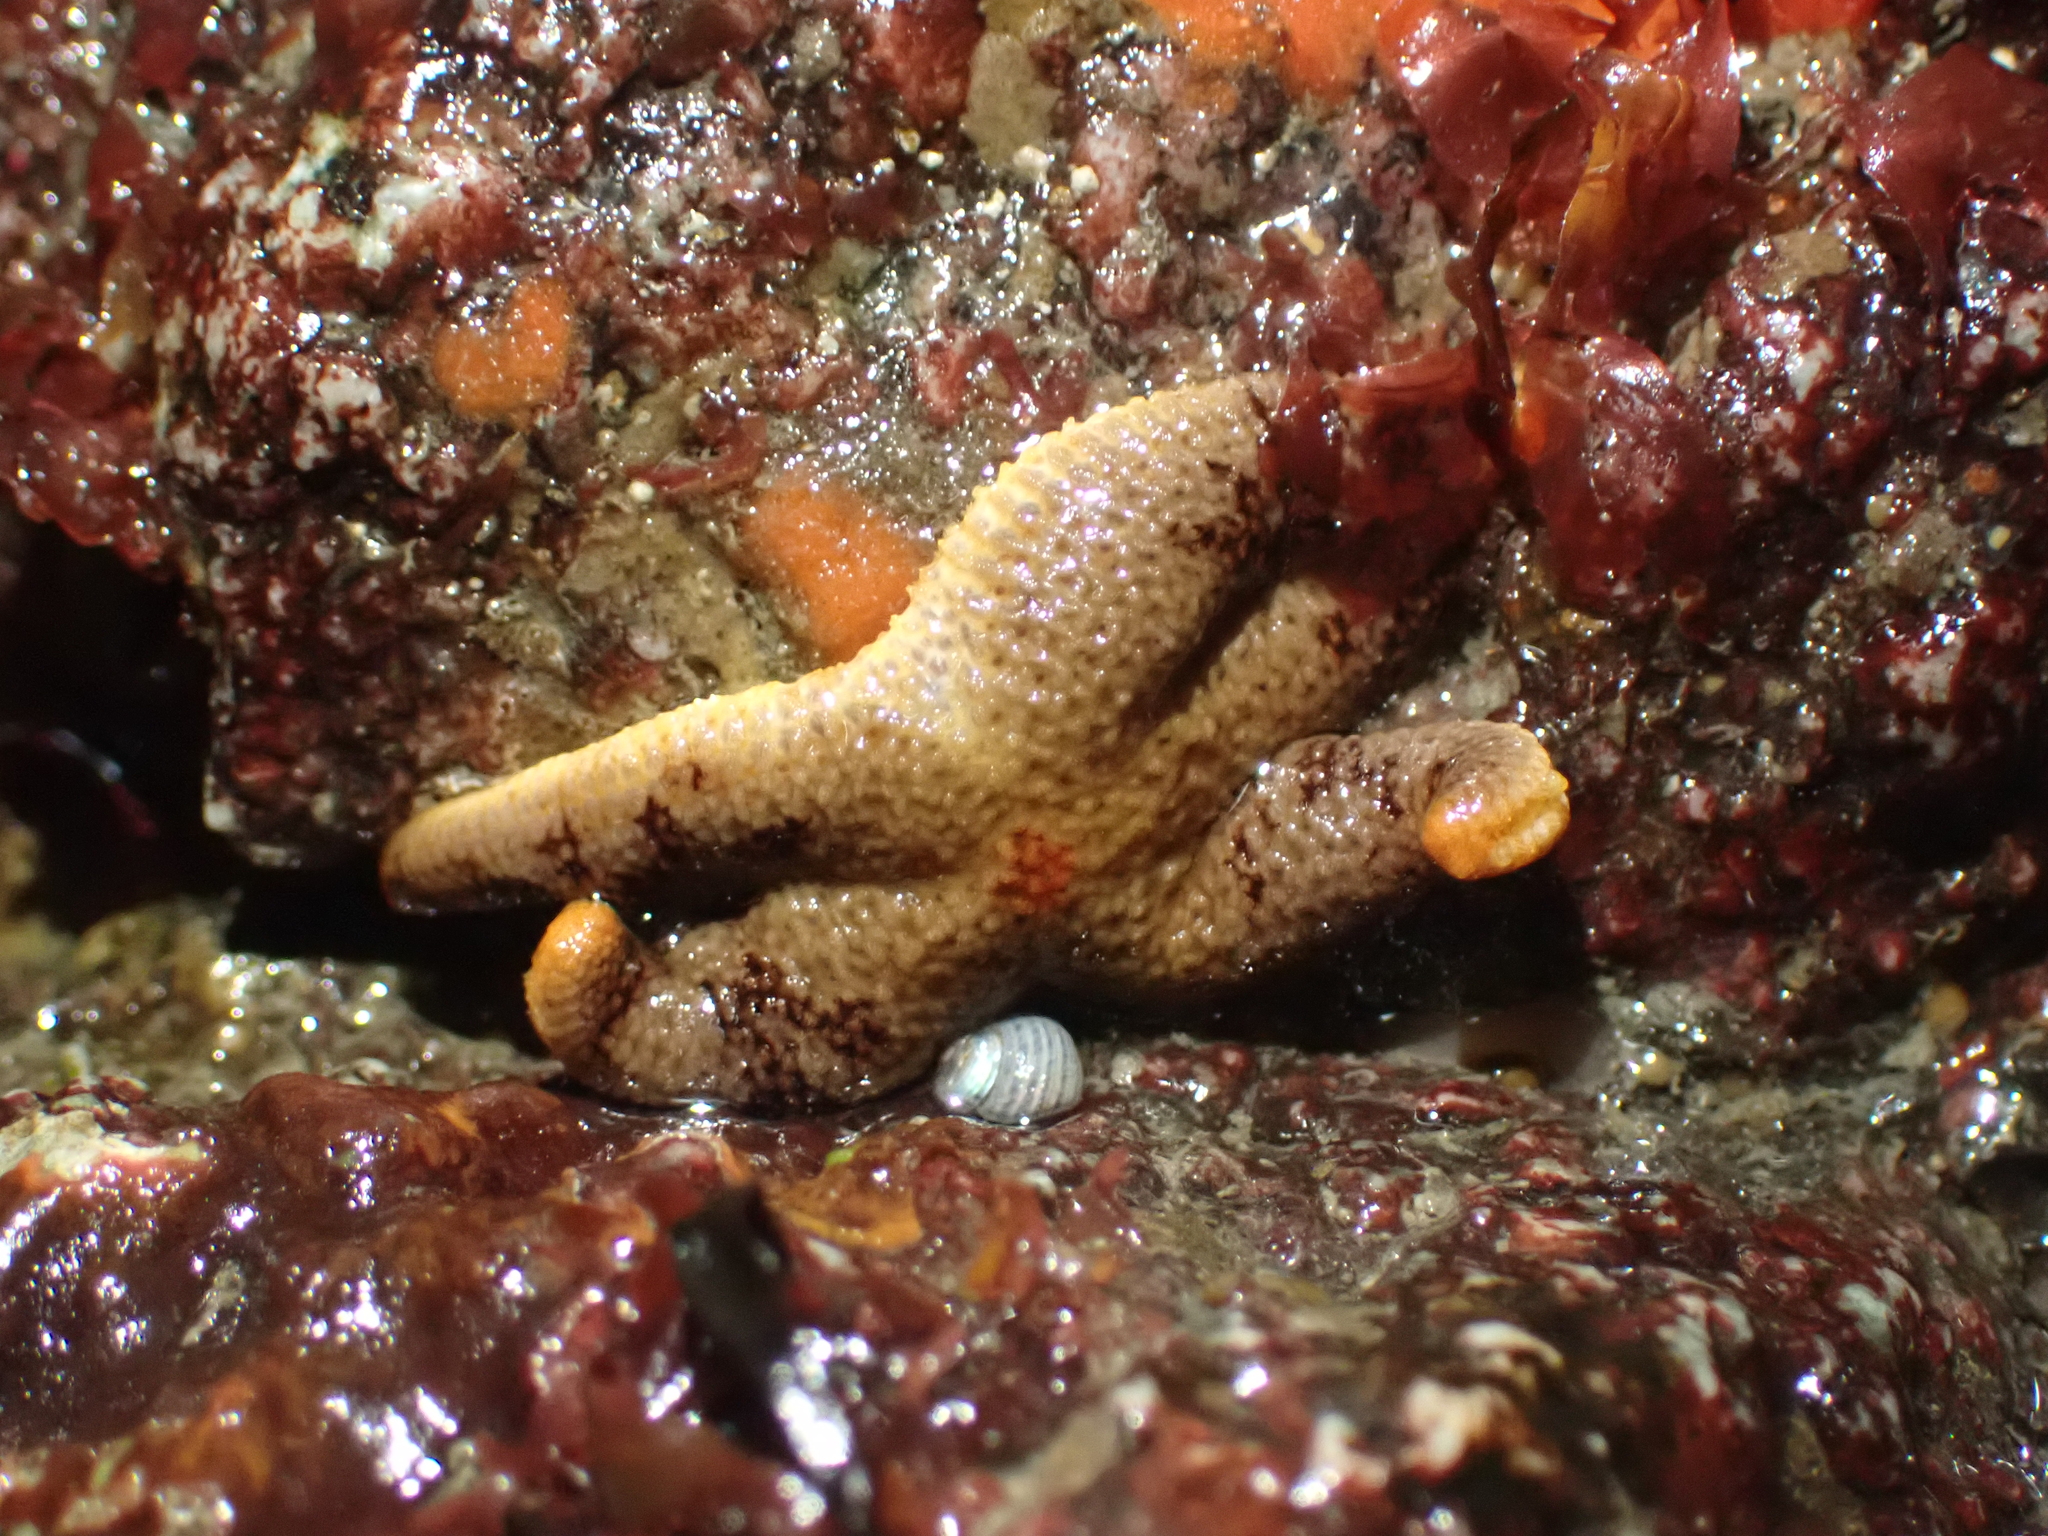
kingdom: Animalia
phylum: Echinodermata
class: Asteroidea
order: Spinulosida
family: Echinasteridae
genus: Henricia
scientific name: Henricia pumila
